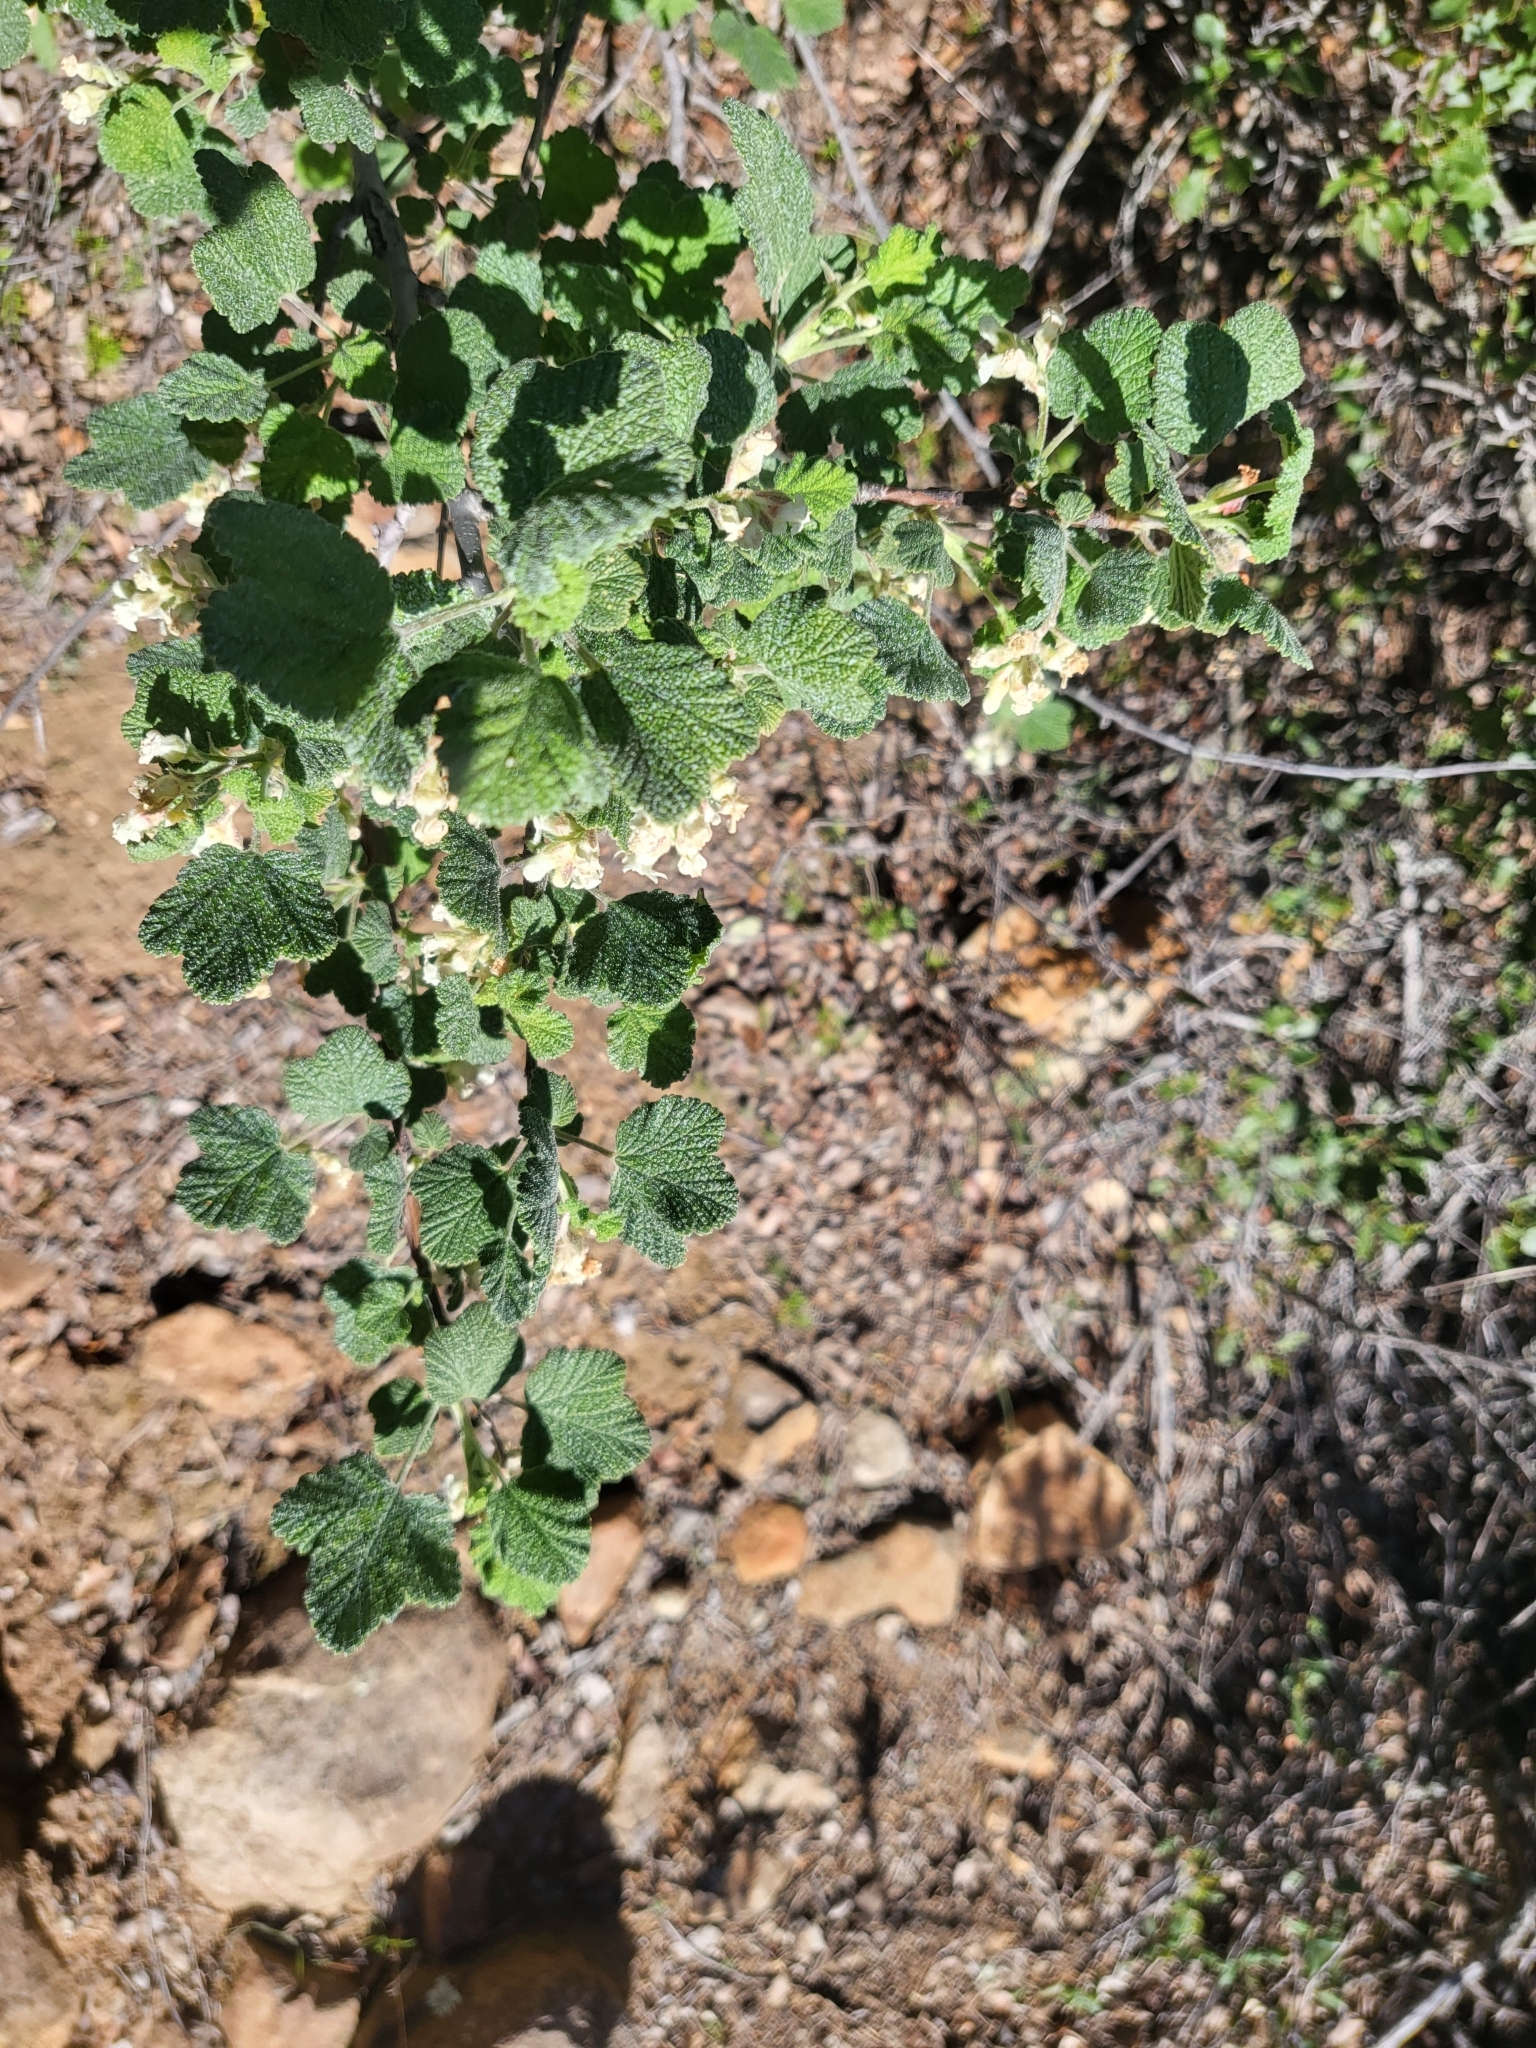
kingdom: Plantae
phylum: Tracheophyta
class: Magnoliopsida
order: Saxifragales
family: Grossulariaceae
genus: Ribes
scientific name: Ribes indecorum
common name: White-flower currant
